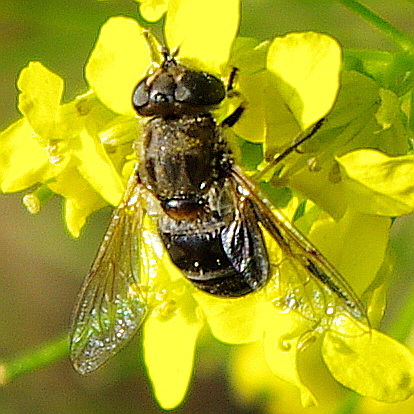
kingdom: Animalia
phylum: Arthropoda
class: Insecta
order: Diptera
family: Syrphidae
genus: Eristalis
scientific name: Eristalis arbustorum
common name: Hover fly
